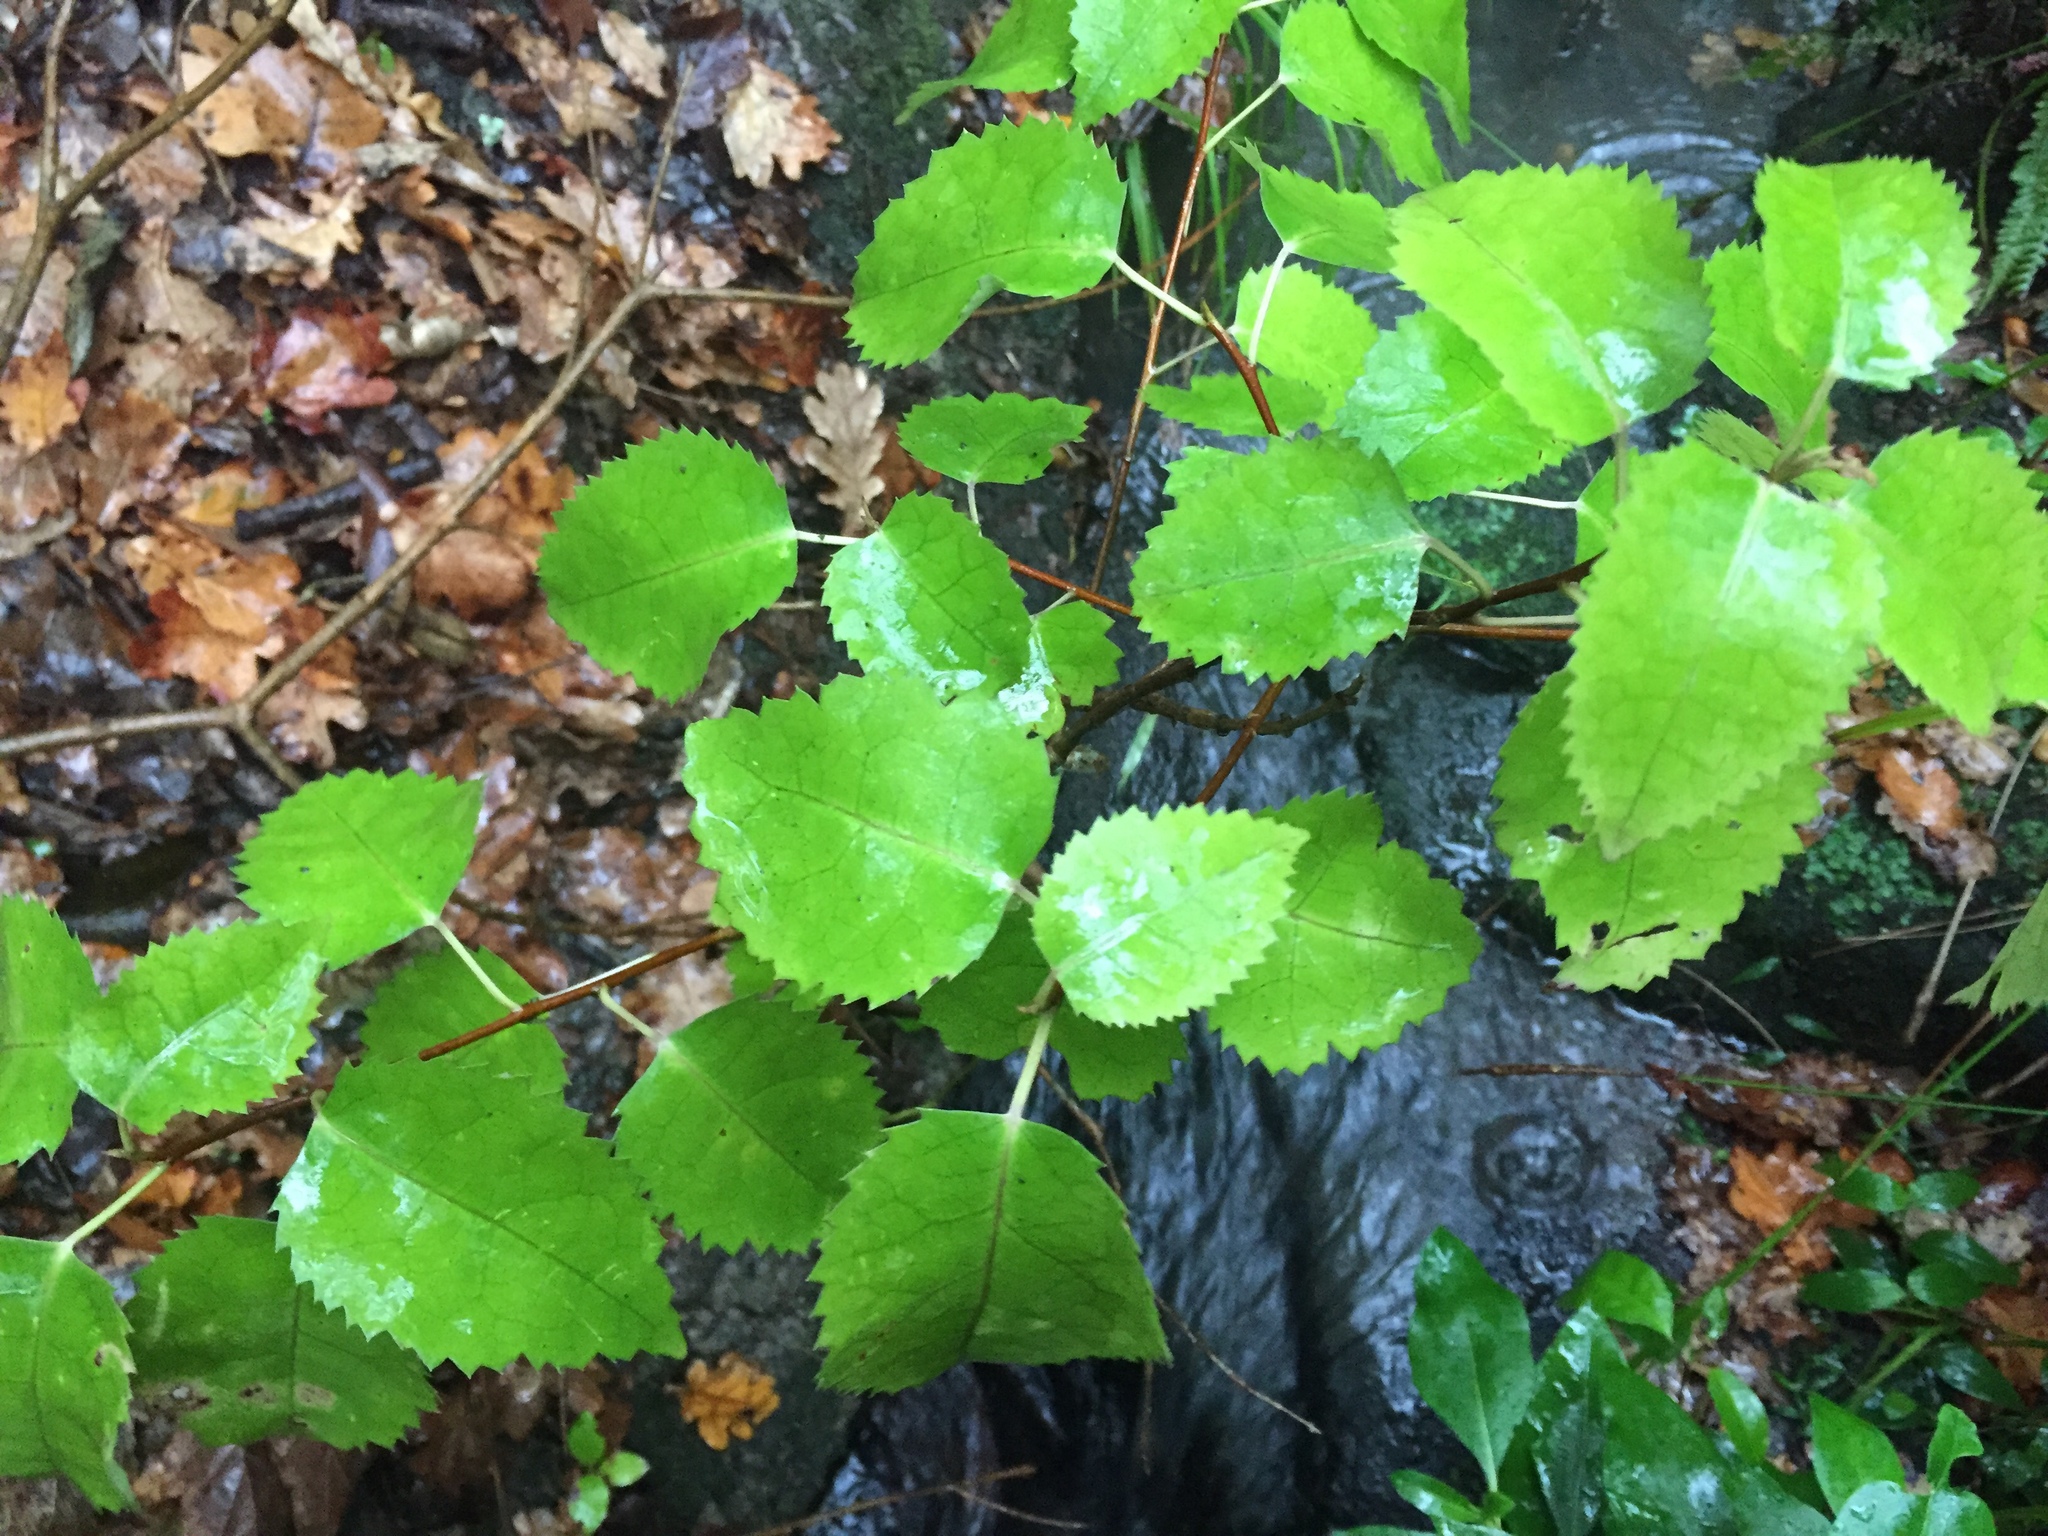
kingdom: Plantae
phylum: Tracheophyta
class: Magnoliopsida
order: Malvales
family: Malvaceae
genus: Hoheria
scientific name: Hoheria populnea
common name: Lacebark
